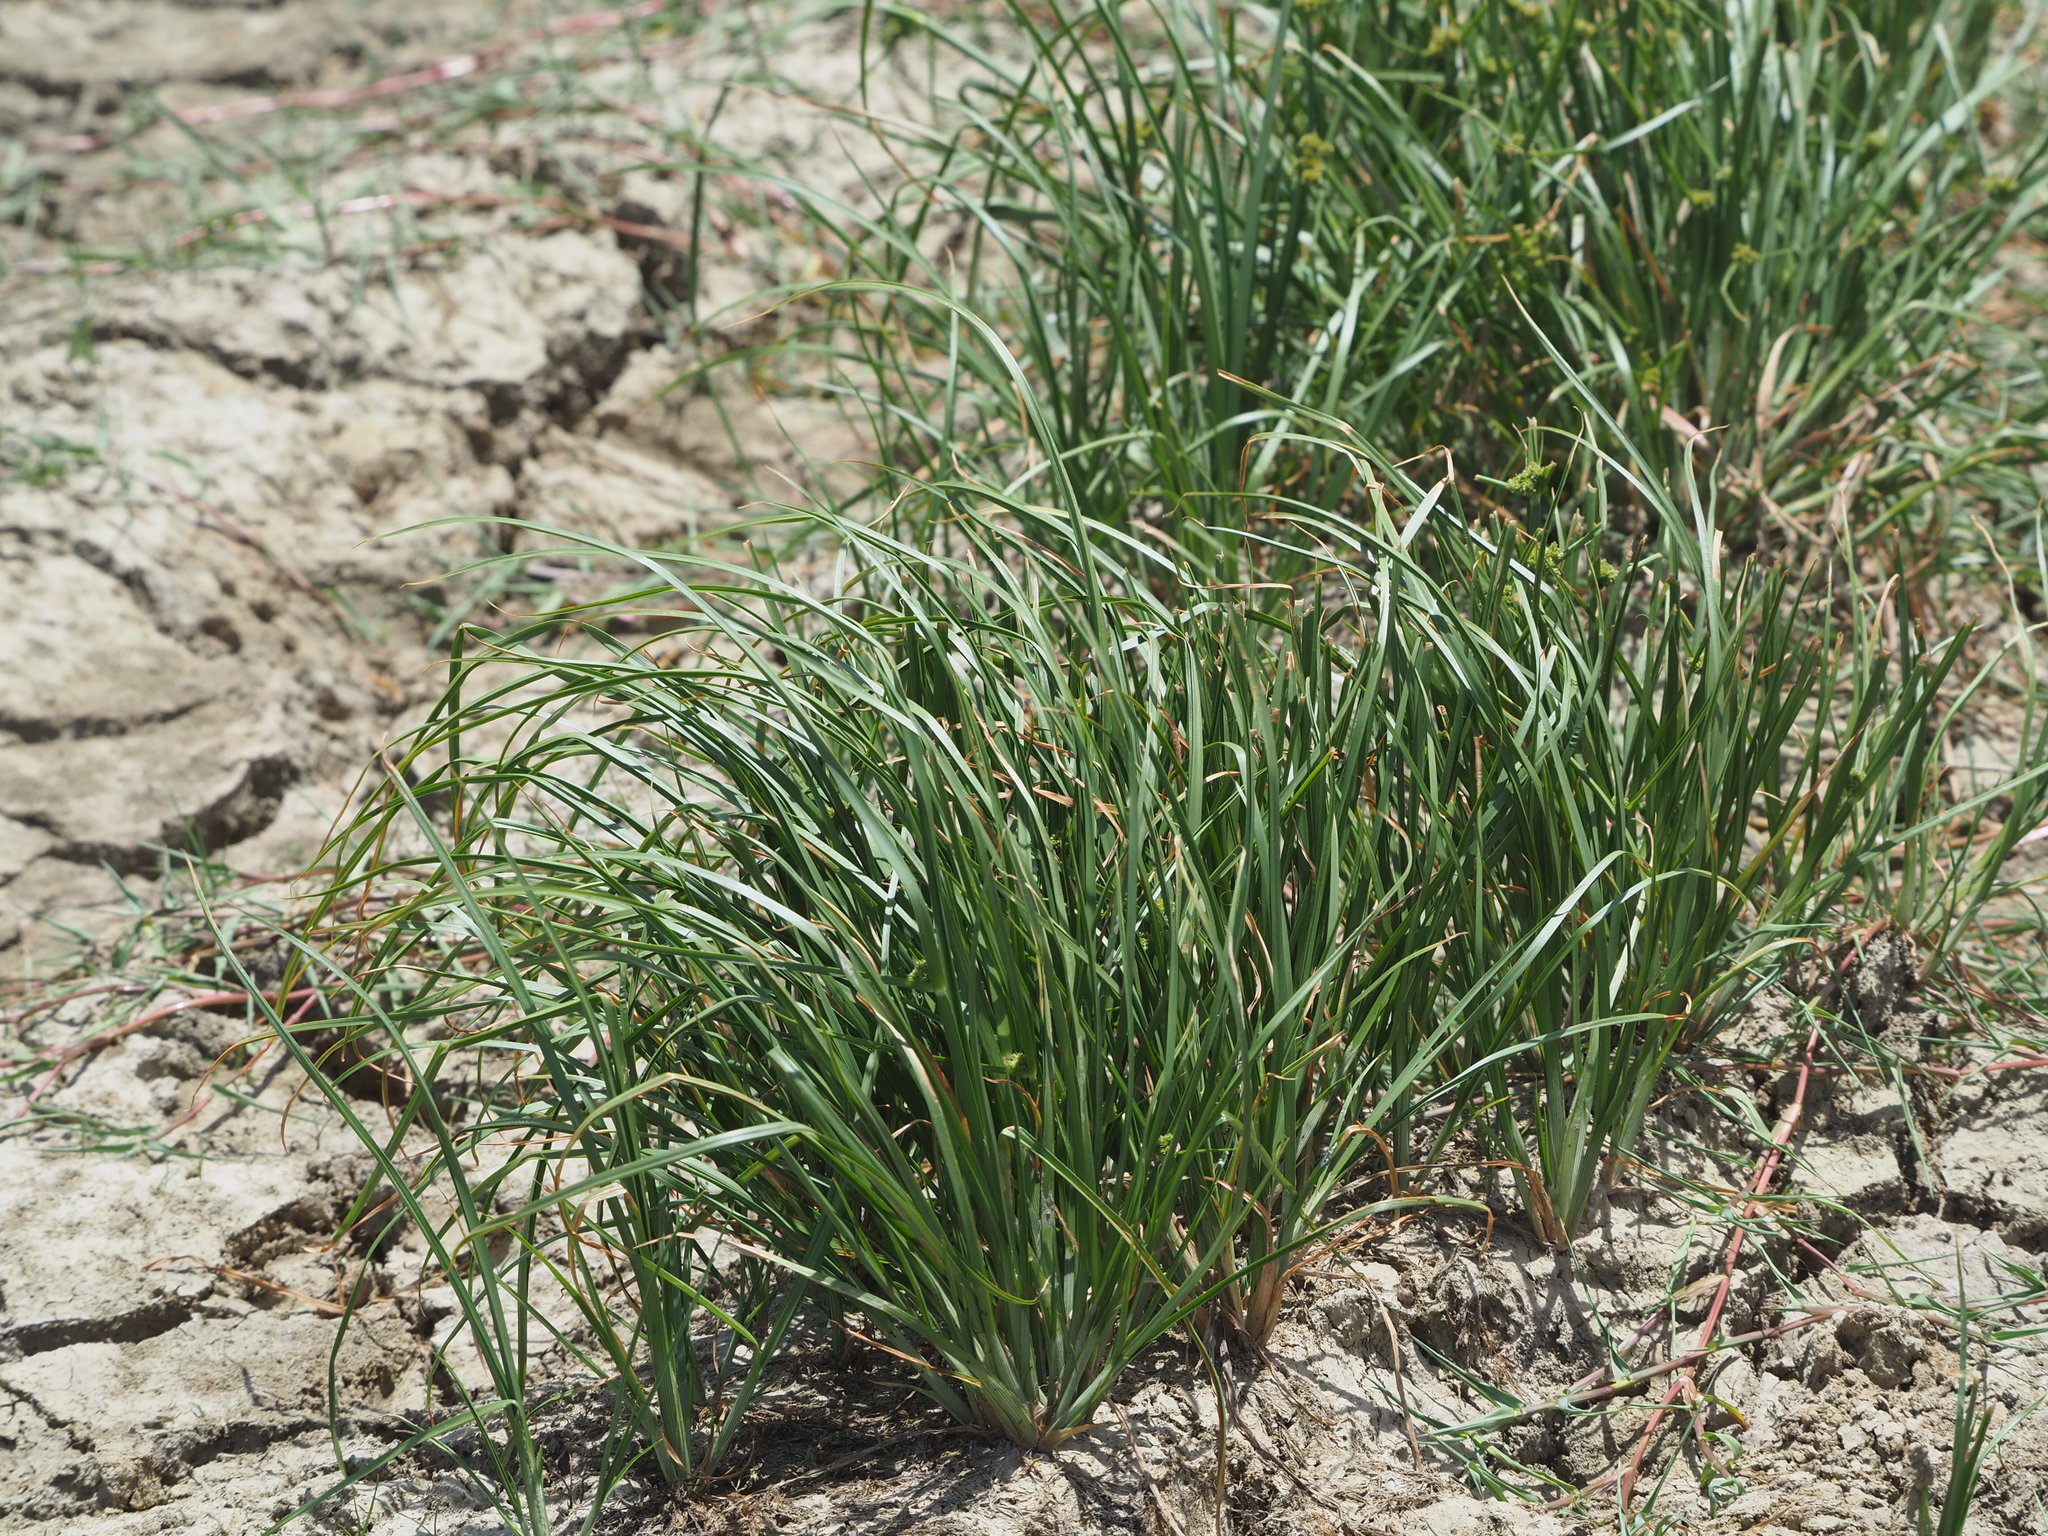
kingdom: Plantae
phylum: Tracheophyta
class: Liliopsida
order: Poales
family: Cyperaceae
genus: Cyperus
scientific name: Cyperus difformis
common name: Variable flatsedge
